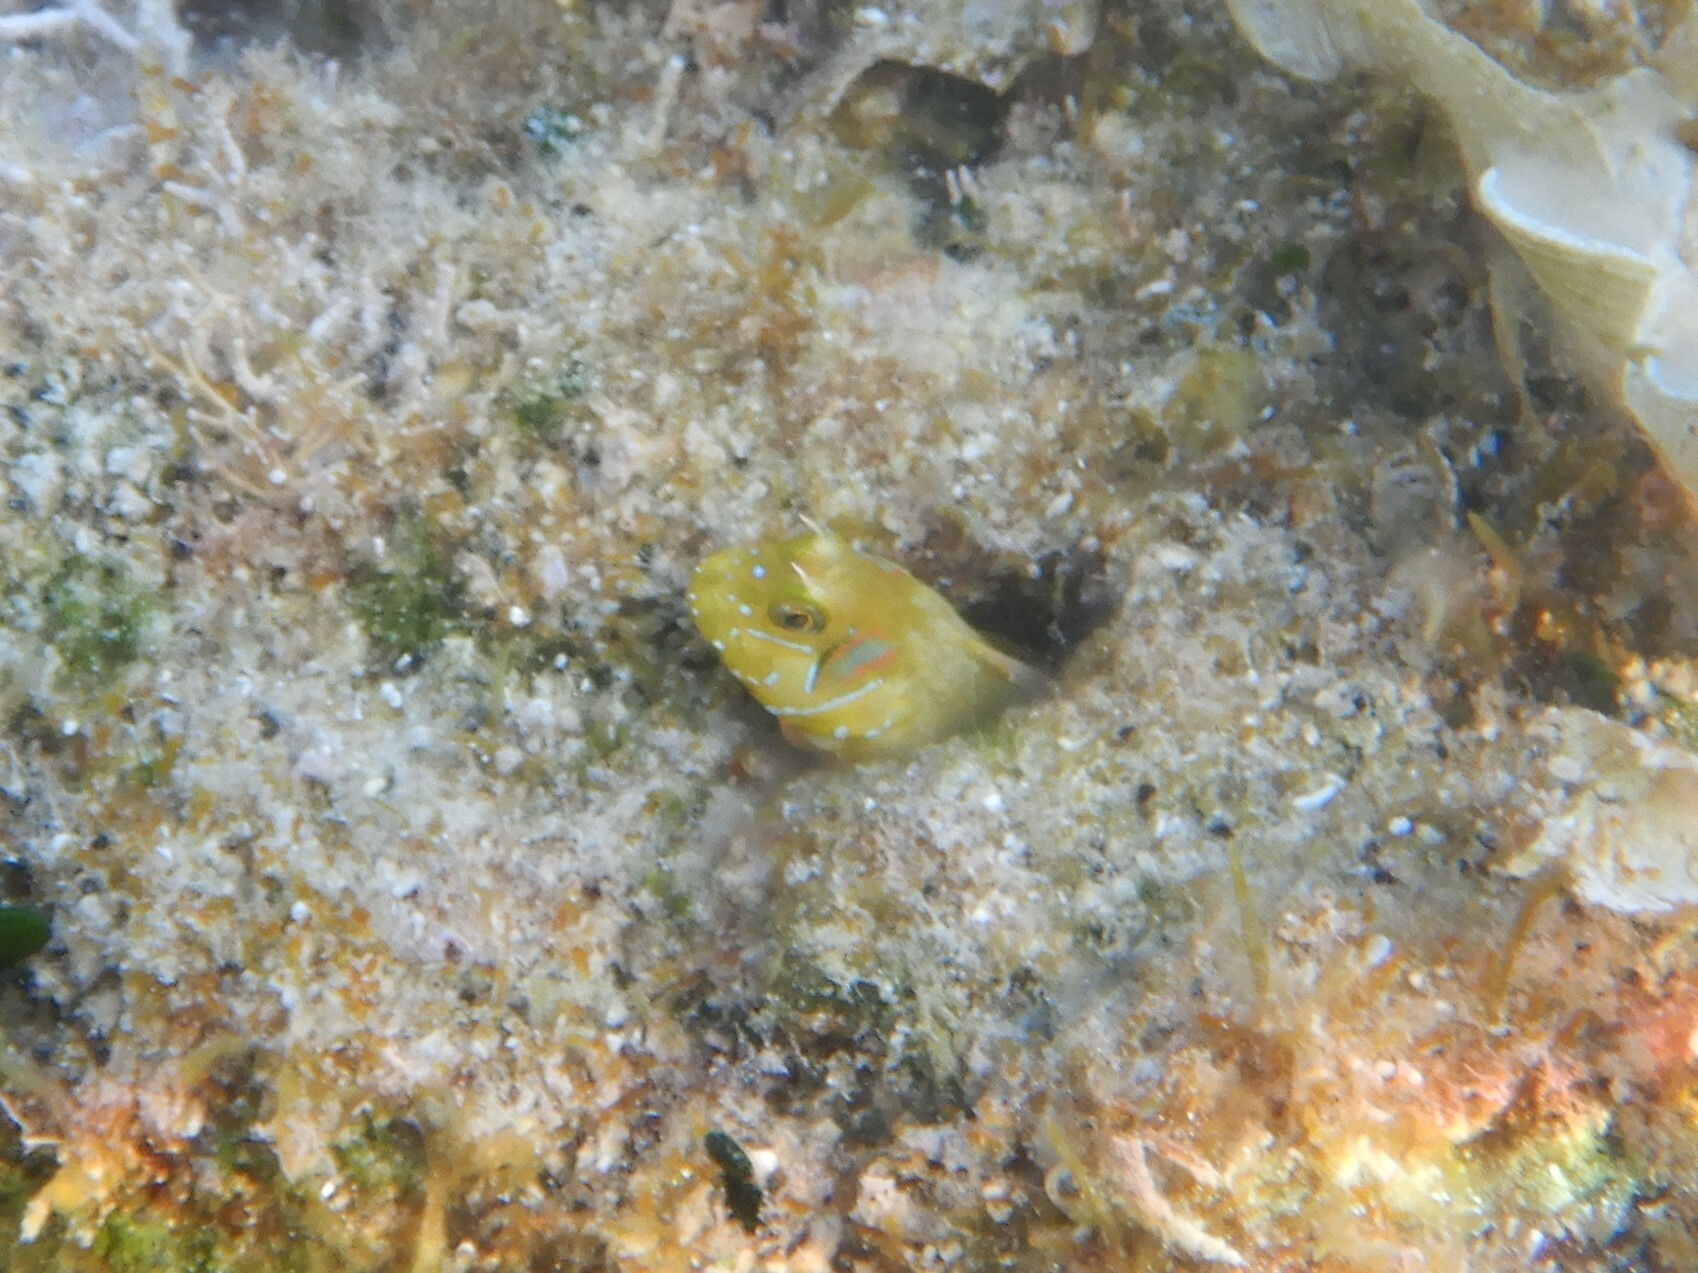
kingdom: Animalia
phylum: Chordata
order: Perciformes
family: Blenniidae
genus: Aidablennius
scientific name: Aidablennius sphynx
